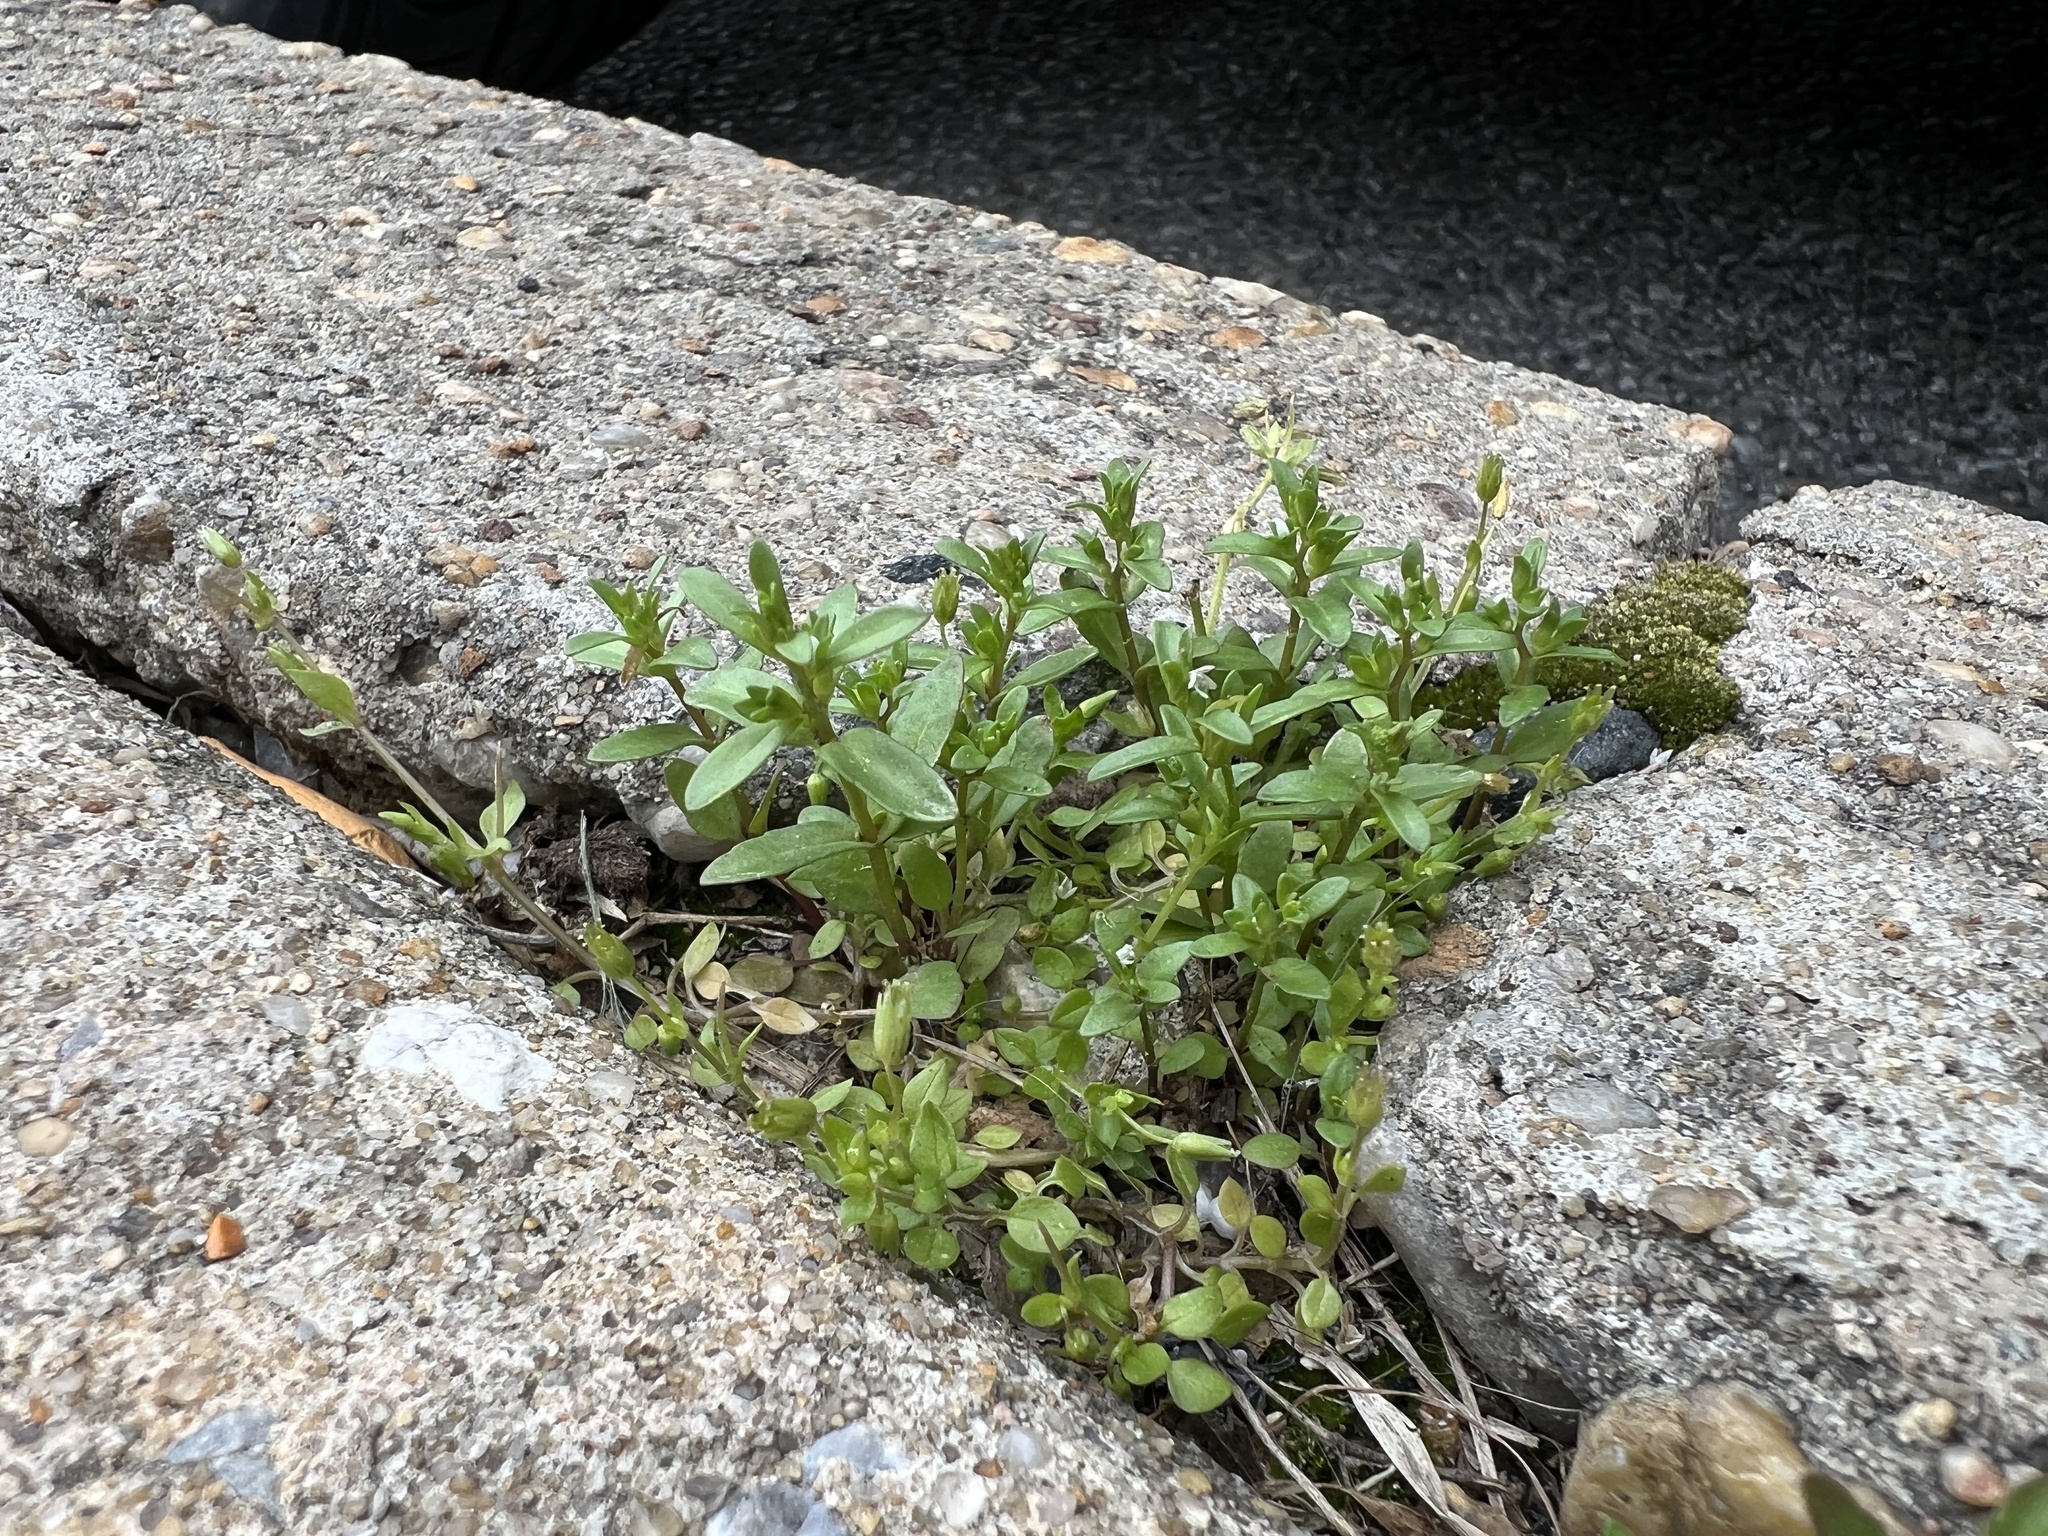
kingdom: Plantae
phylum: Tracheophyta
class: Magnoliopsida
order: Lamiales
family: Plantaginaceae
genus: Veronica
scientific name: Veronica peregrina
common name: Neckweed
